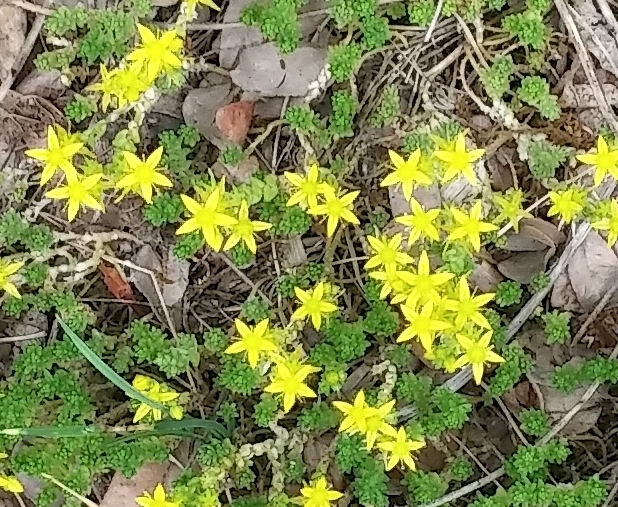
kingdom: Plantae
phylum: Tracheophyta
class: Magnoliopsida
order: Saxifragales
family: Crassulaceae
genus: Sedum
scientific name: Sedum acre
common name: Biting stonecrop
